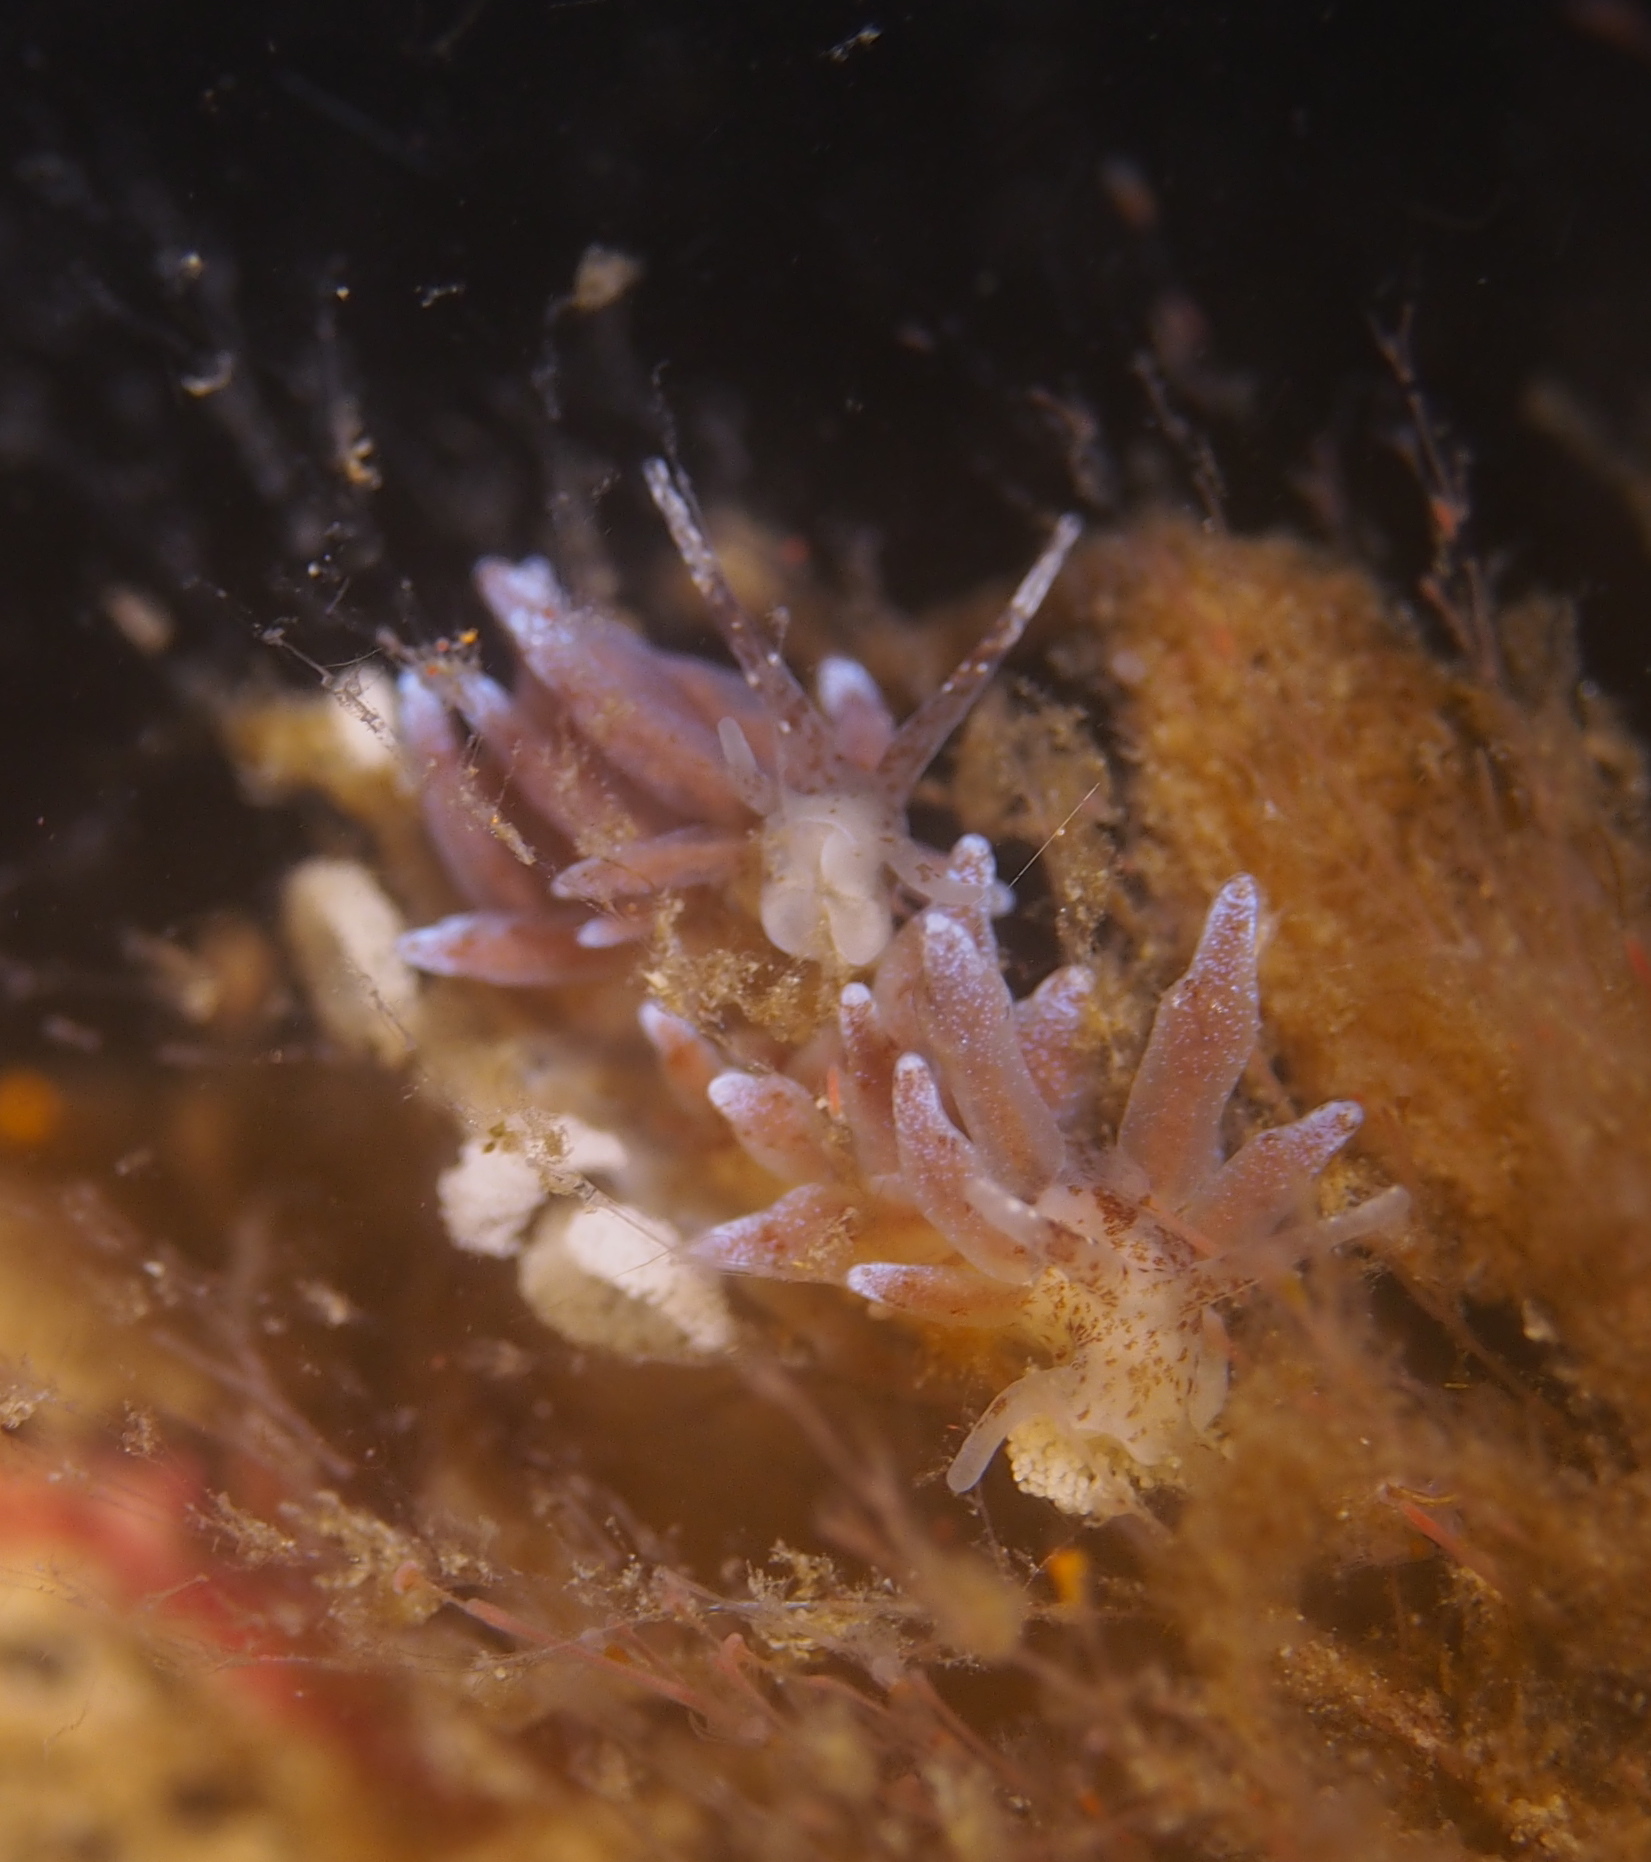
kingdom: Animalia
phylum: Mollusca
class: Gastropoda
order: Nudibranchia
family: Eubranchidae
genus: Eubranchus
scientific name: Eubranchus rupium
